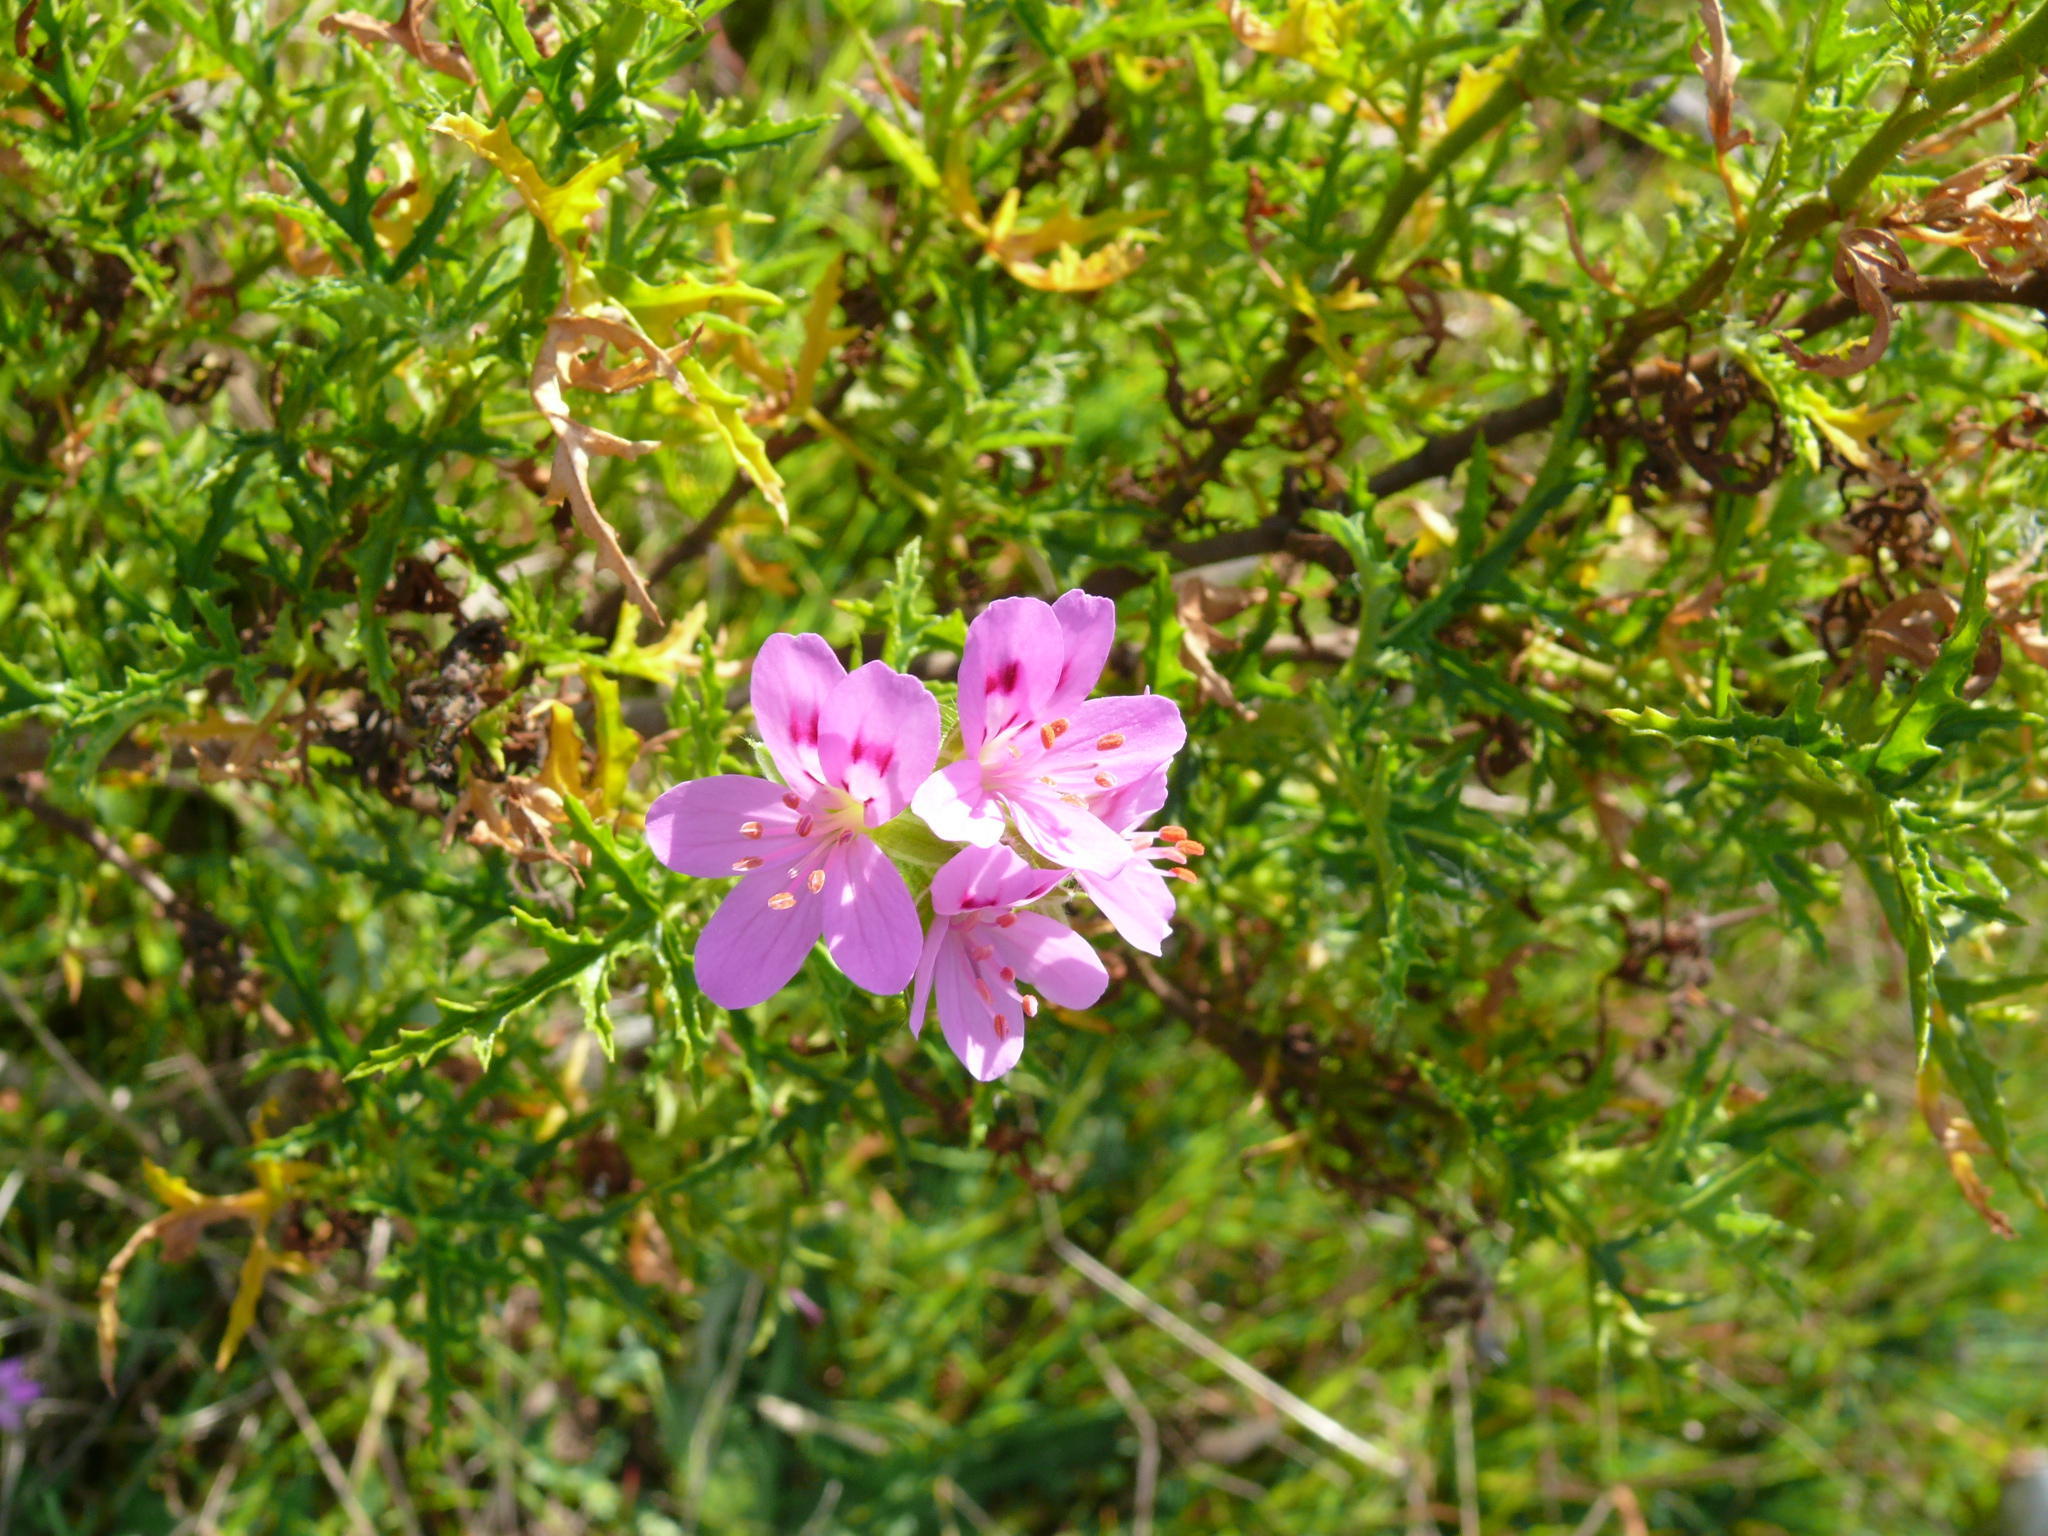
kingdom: Plantae
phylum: Tracheophyta
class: Magnoliopsida
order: Geraniales
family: Geraniaceae
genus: Pelargonium
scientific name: Pelargonium glutinosum
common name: Pheasant-foot geranium
